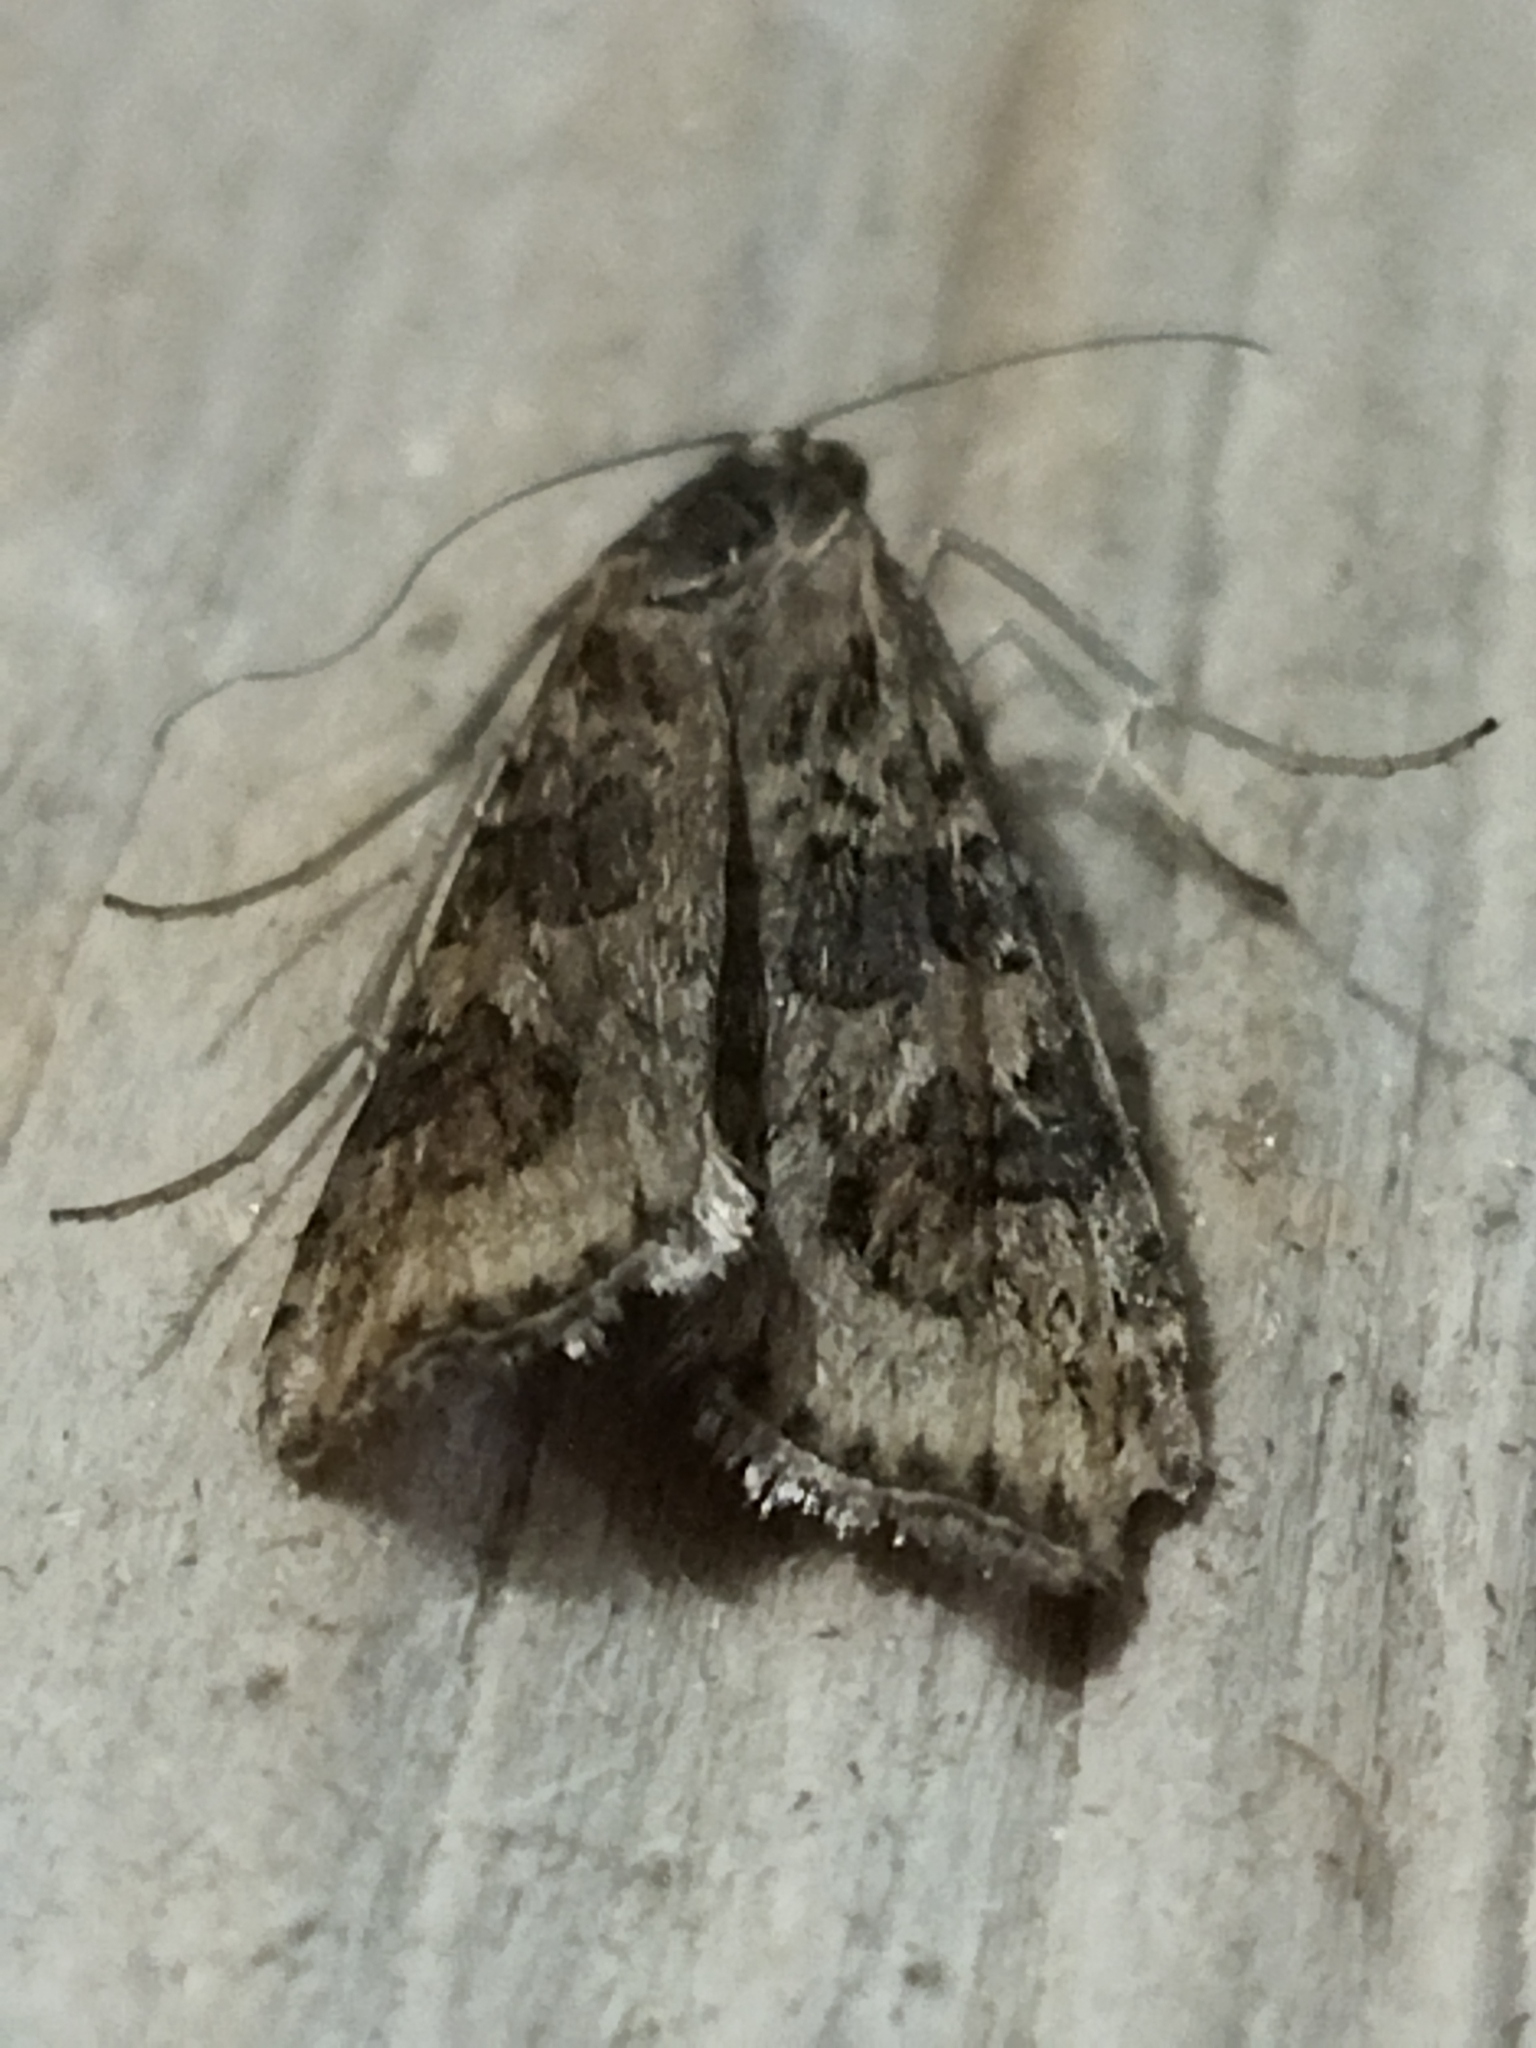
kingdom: Animalia
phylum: Arthropoda
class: Insecta
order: Lepidoptera
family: Crambidae
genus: Nomophila
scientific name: Nomophila noctuella
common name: Rush veneer
